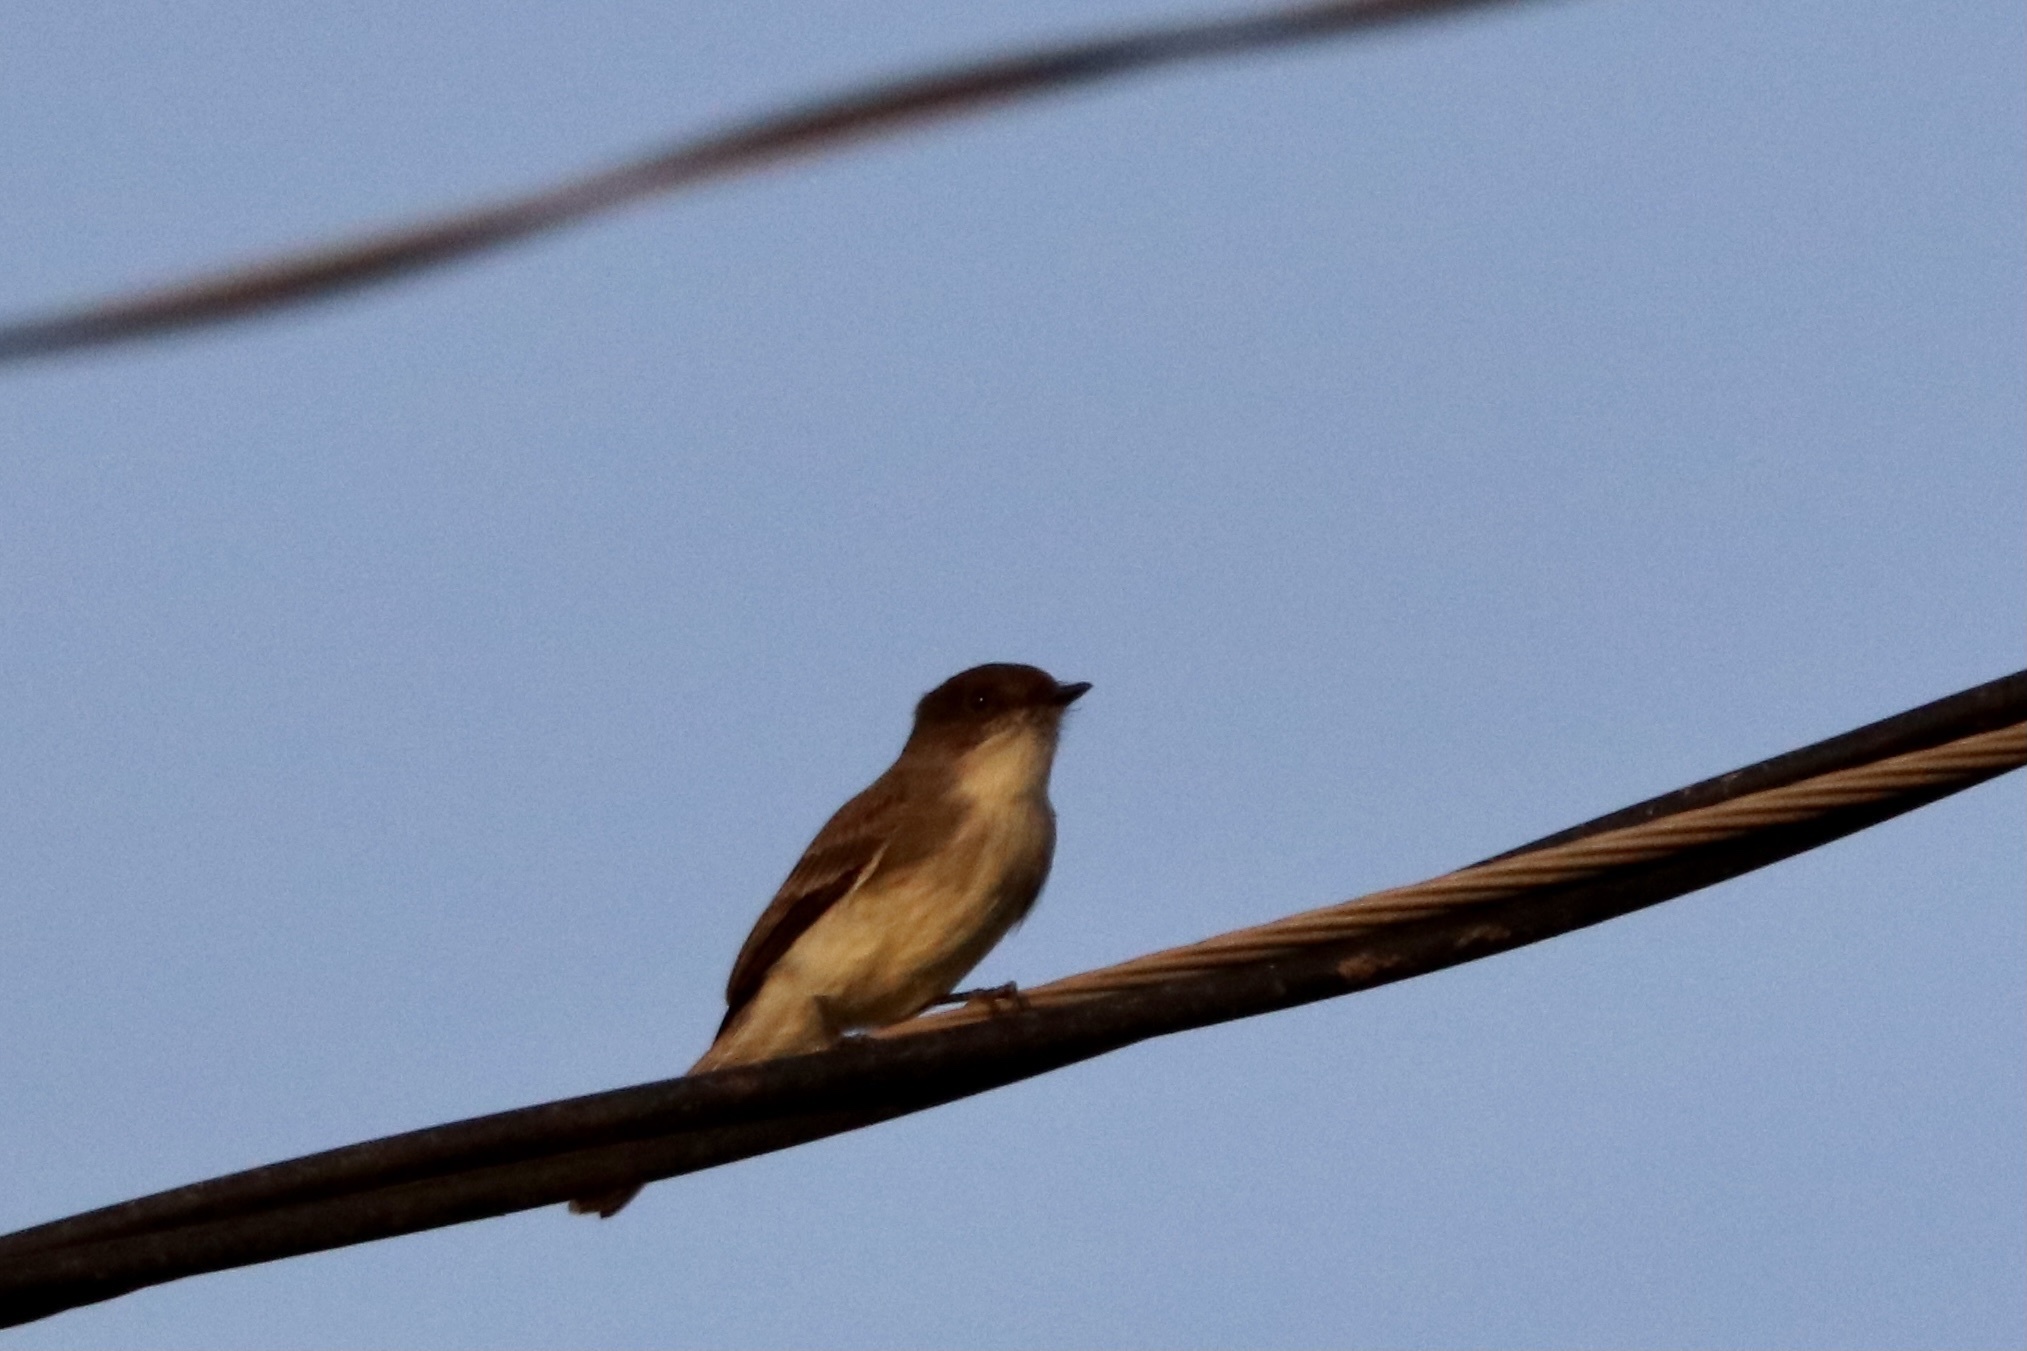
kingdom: Animalia
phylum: Chordata
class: Aves
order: Passeriformes
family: Tyrannidae
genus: Sayornis
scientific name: Sayornis phoebe
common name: Eastern phoebe
